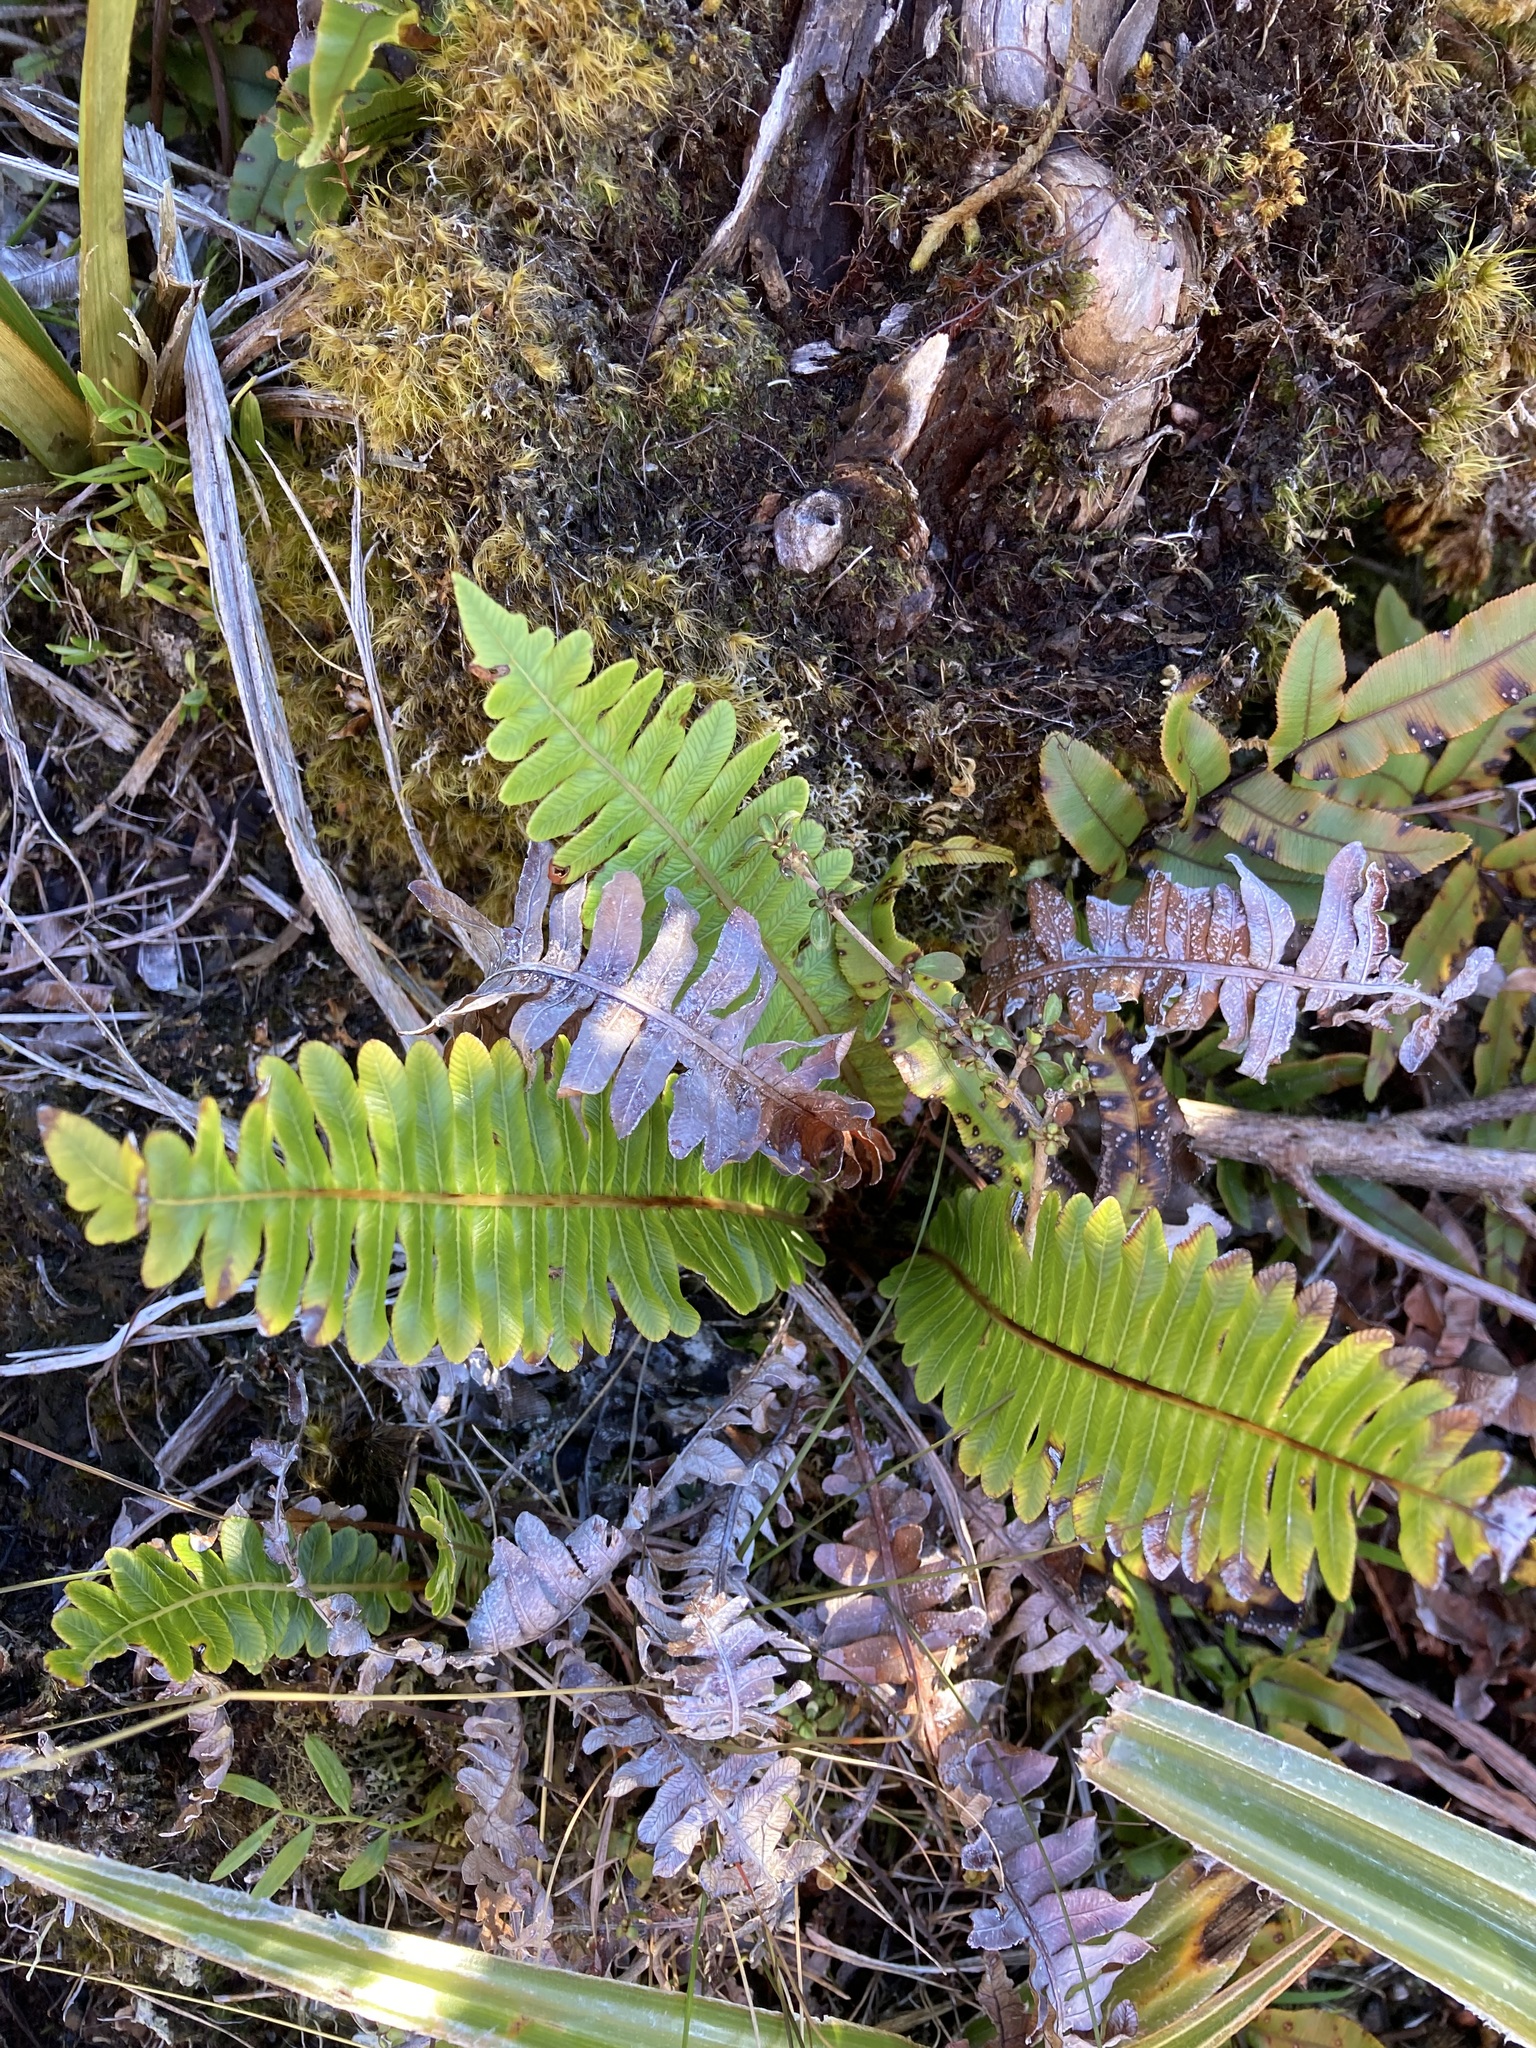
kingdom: Plantae
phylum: Tracheophyta
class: Polypodiopsida
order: Polypodiales
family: Blechnaceae
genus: Lomaria
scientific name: Lomaria discolor
